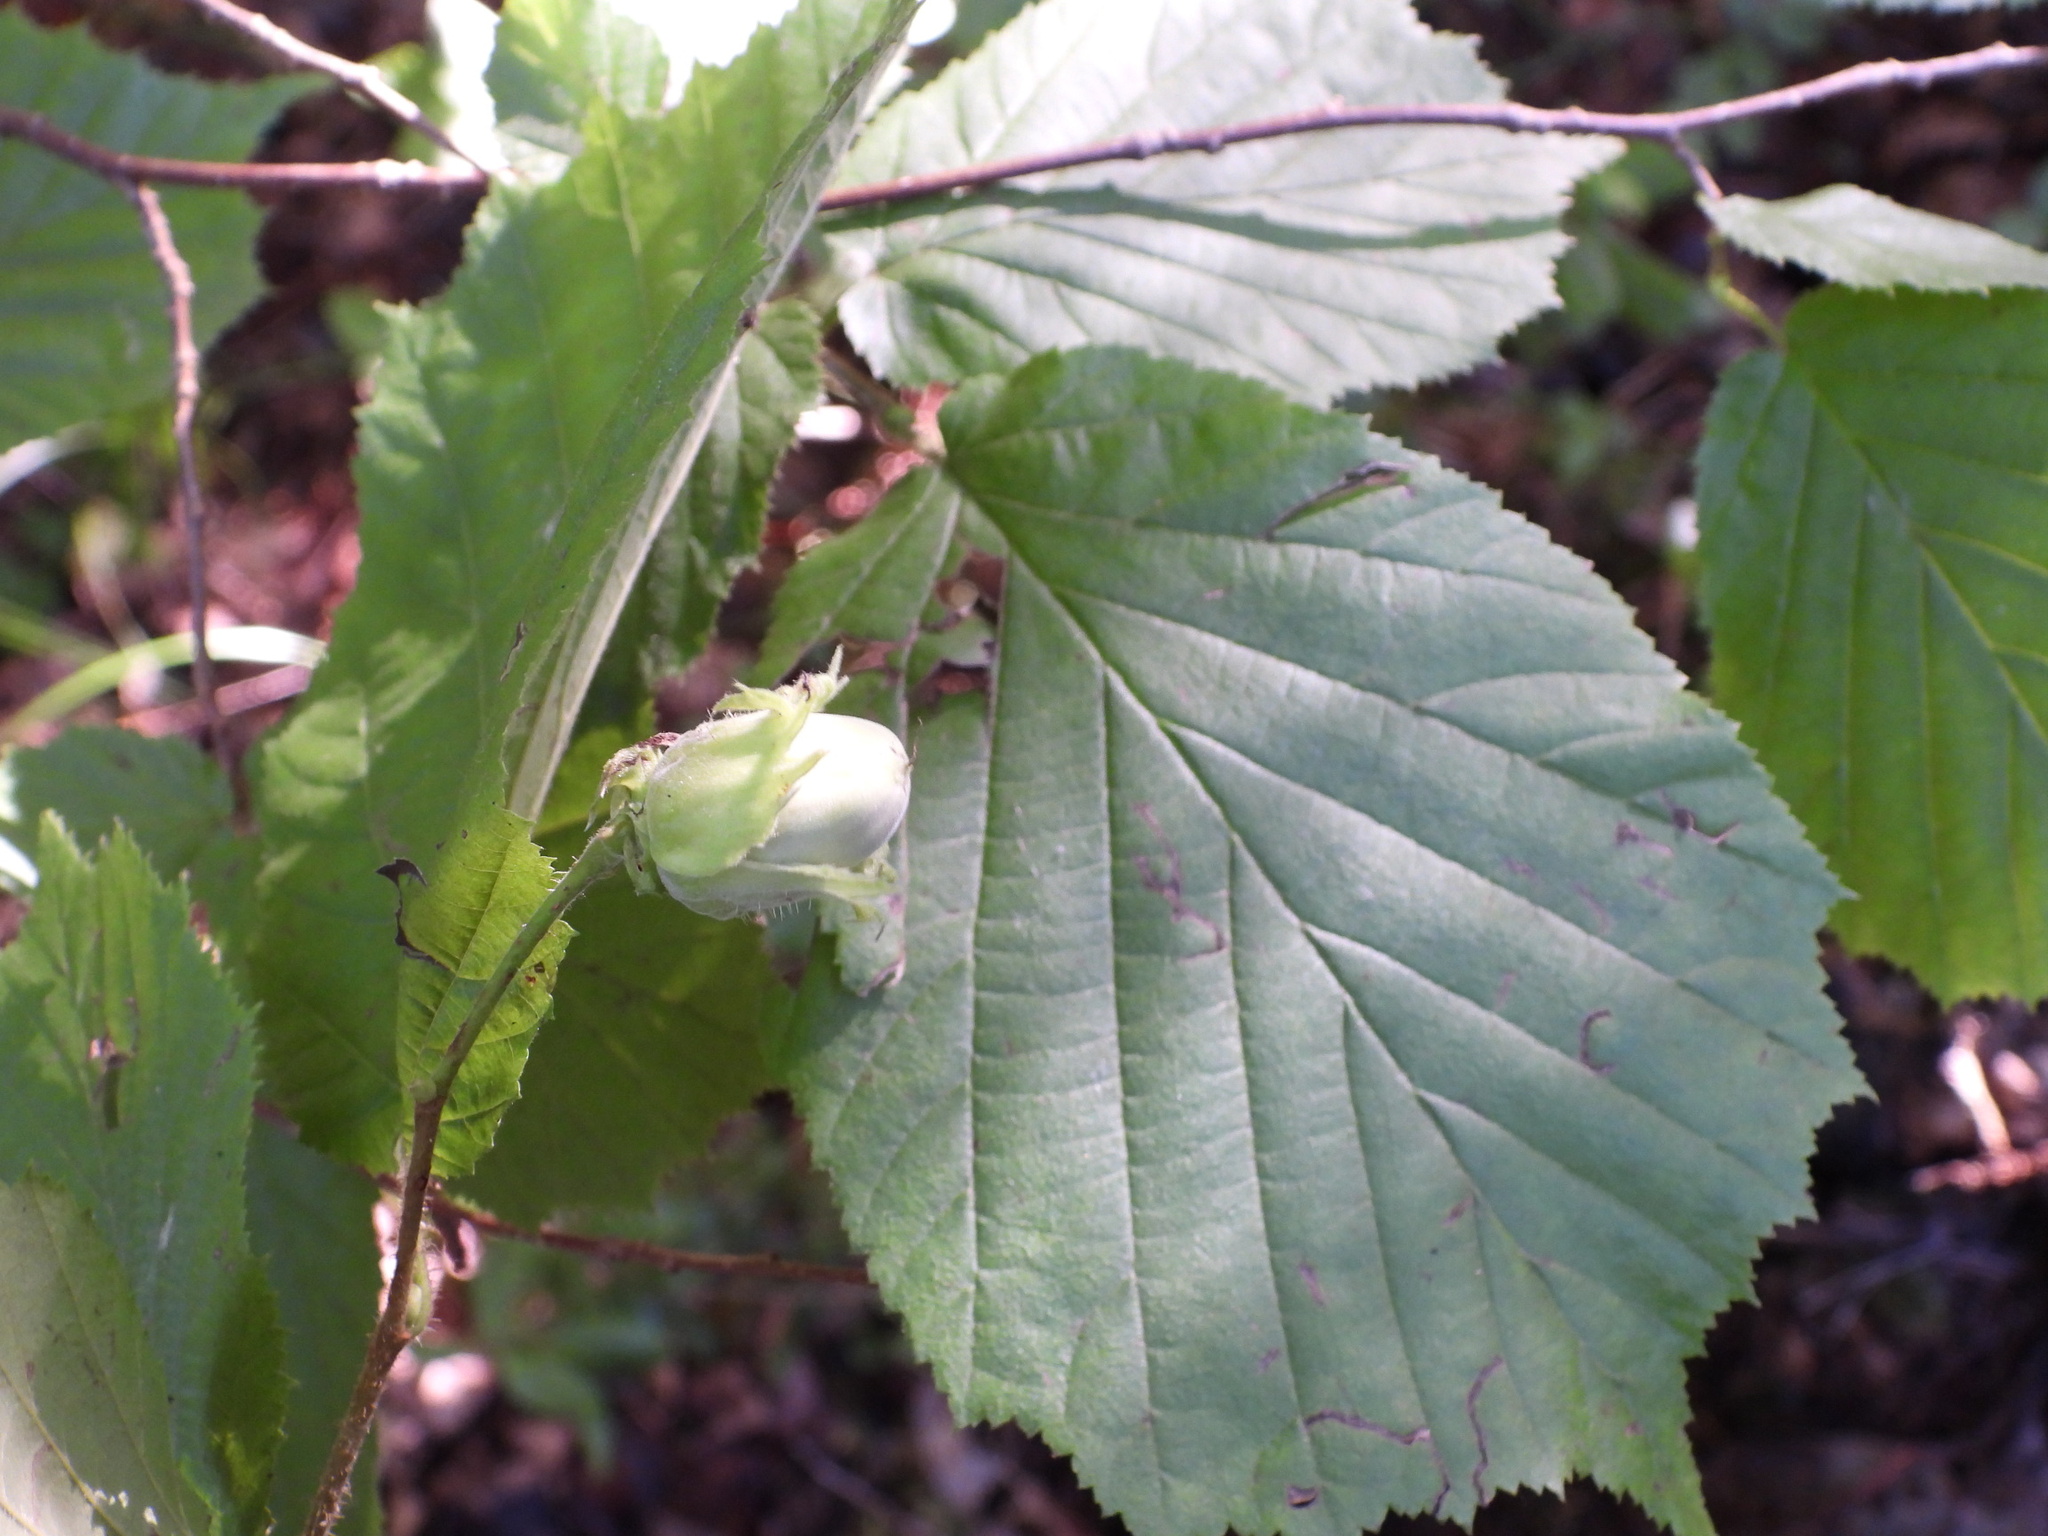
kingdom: Plantae
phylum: Tracheophyta
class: Magnoliopsida
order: Fagales
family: Betulaceae
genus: Corylus
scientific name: Corylus avellana
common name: European hazel
